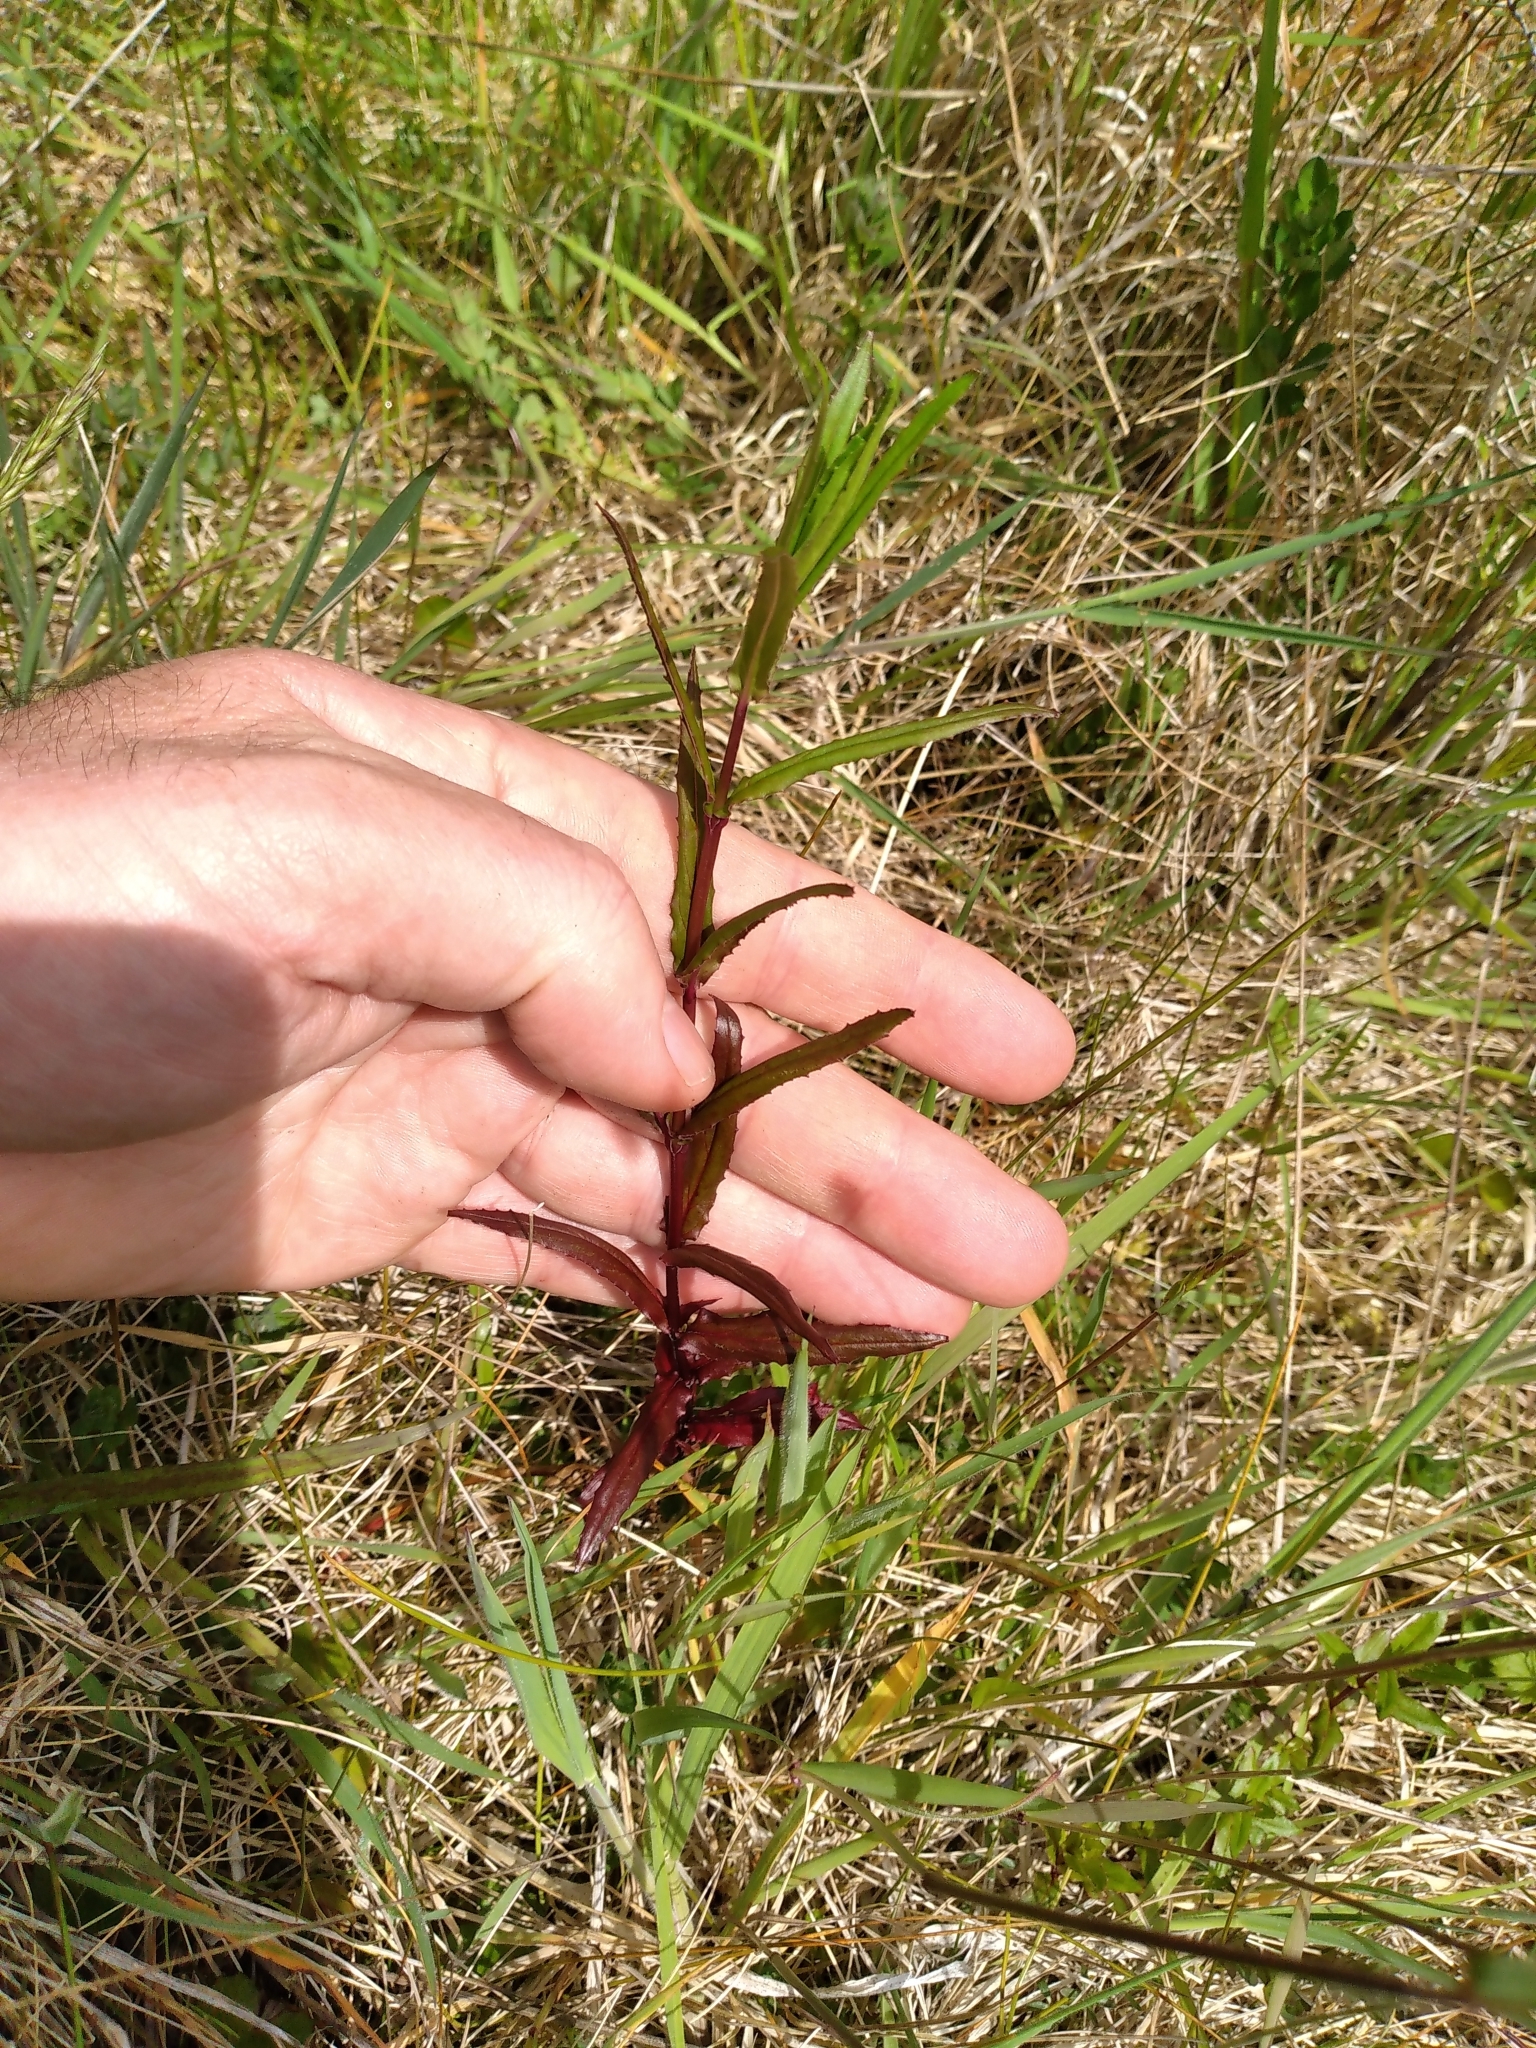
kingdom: Plantae
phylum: Tracheophyta
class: Magnoliopsida
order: Myrtales
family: Onagraceae
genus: Epilobium
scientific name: Epilobium pallidiflorum
